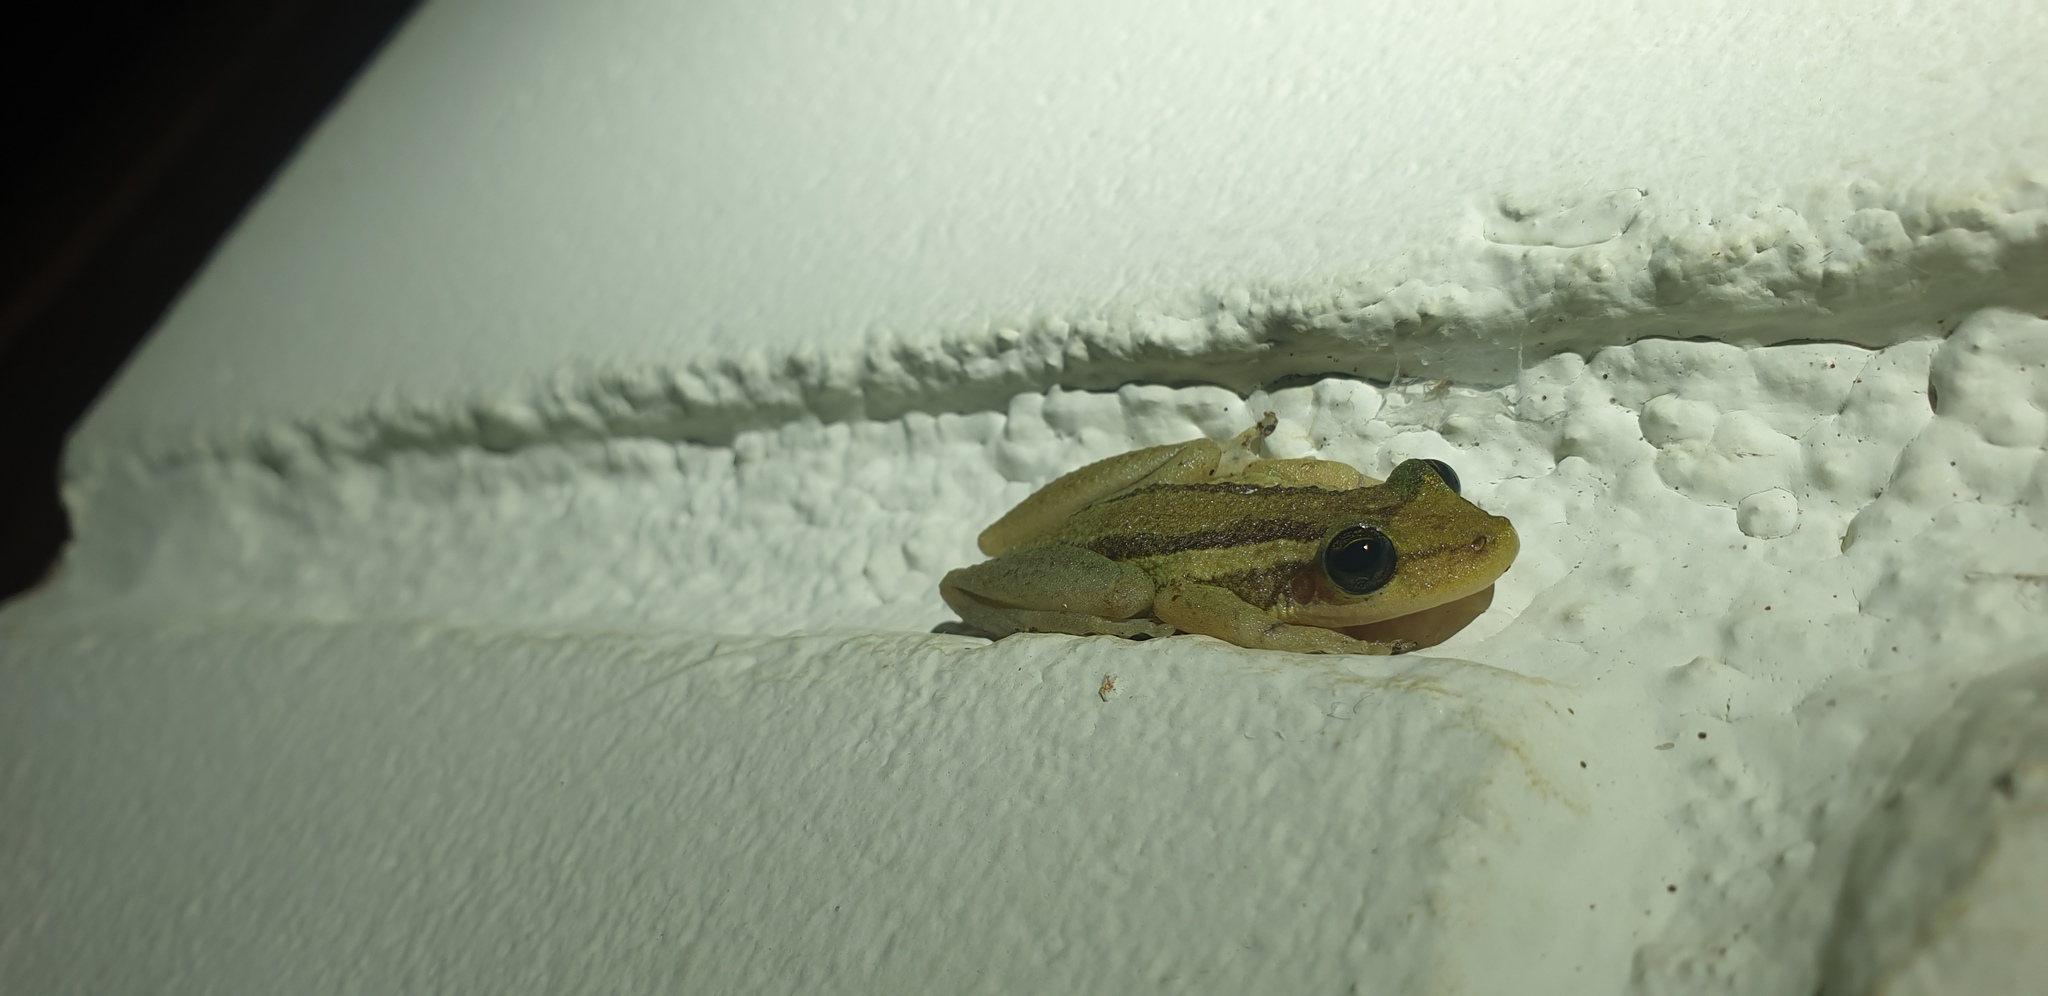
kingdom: Animalia
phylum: Chordata
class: Amphibia
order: Anura
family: Hylidae
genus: Scinax
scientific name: Scinax ruber
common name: Red snouted treefrog
